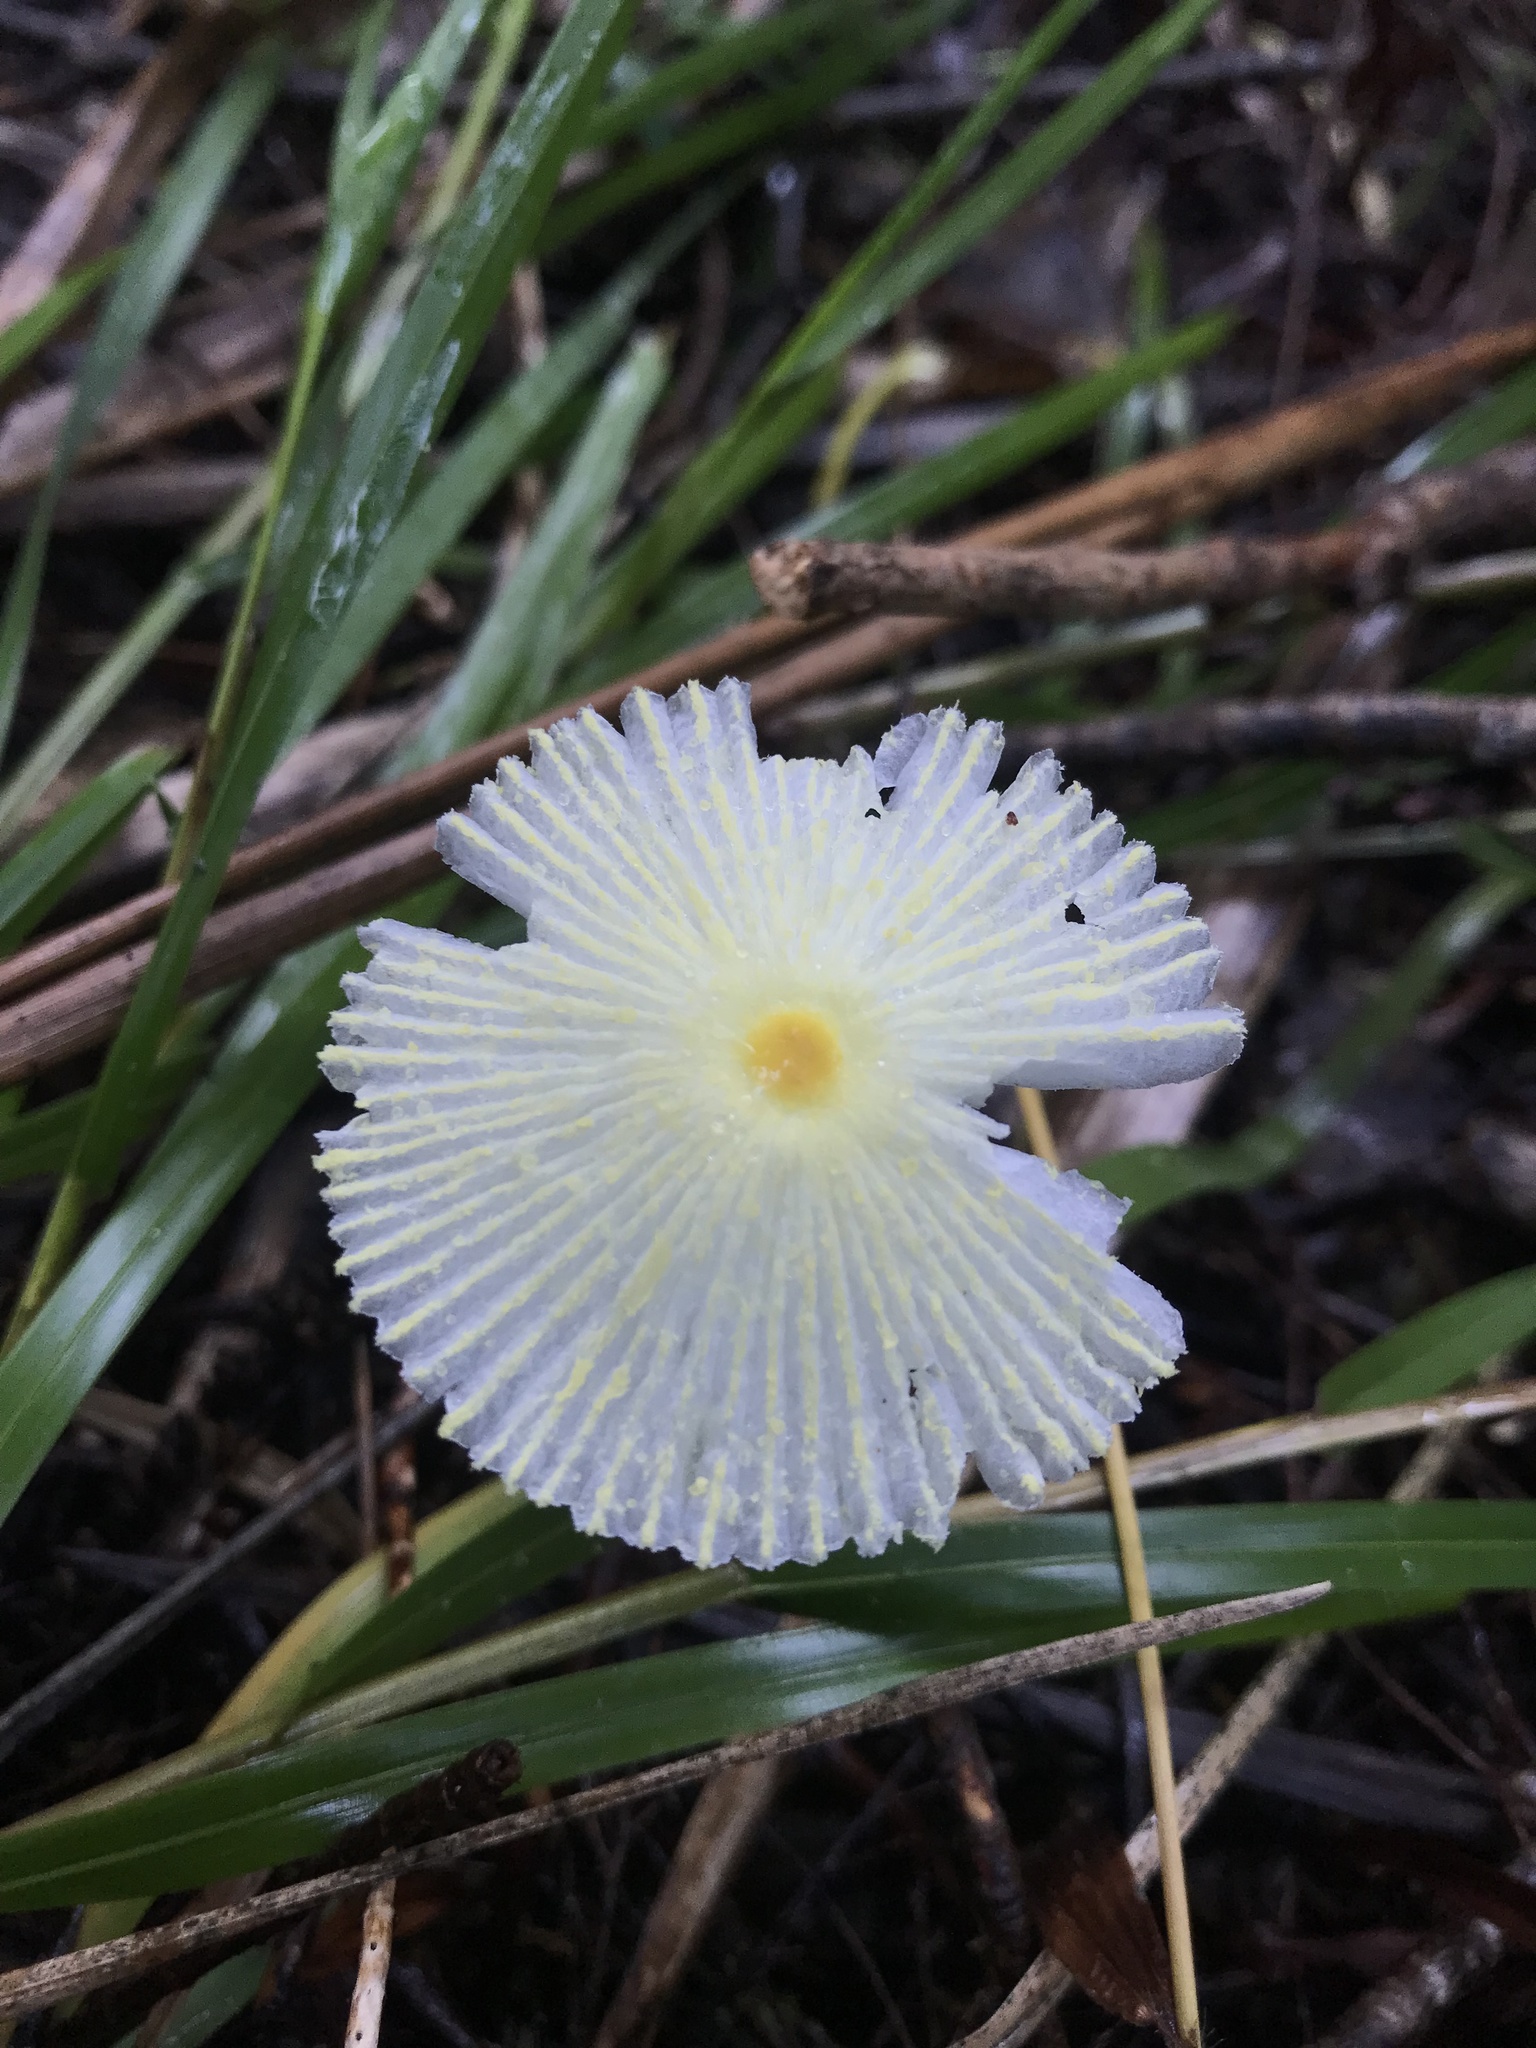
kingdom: Fungi
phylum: Basidiomycota
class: Agaricomycetes
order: Agaricales
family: Agaricaceae
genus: Leucocoprinus
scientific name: Leucocoprinus fragilissimus
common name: Fragile dapperling
